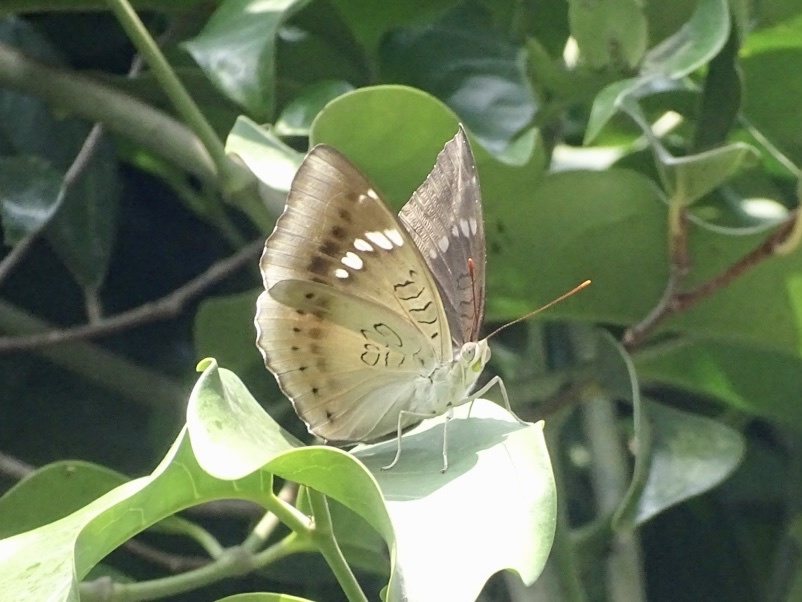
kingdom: Animalia
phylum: Arthropoda
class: Insecta
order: Lepidoptera
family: Nymphalidae
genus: Euthalia
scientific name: Euthalia aconthea
